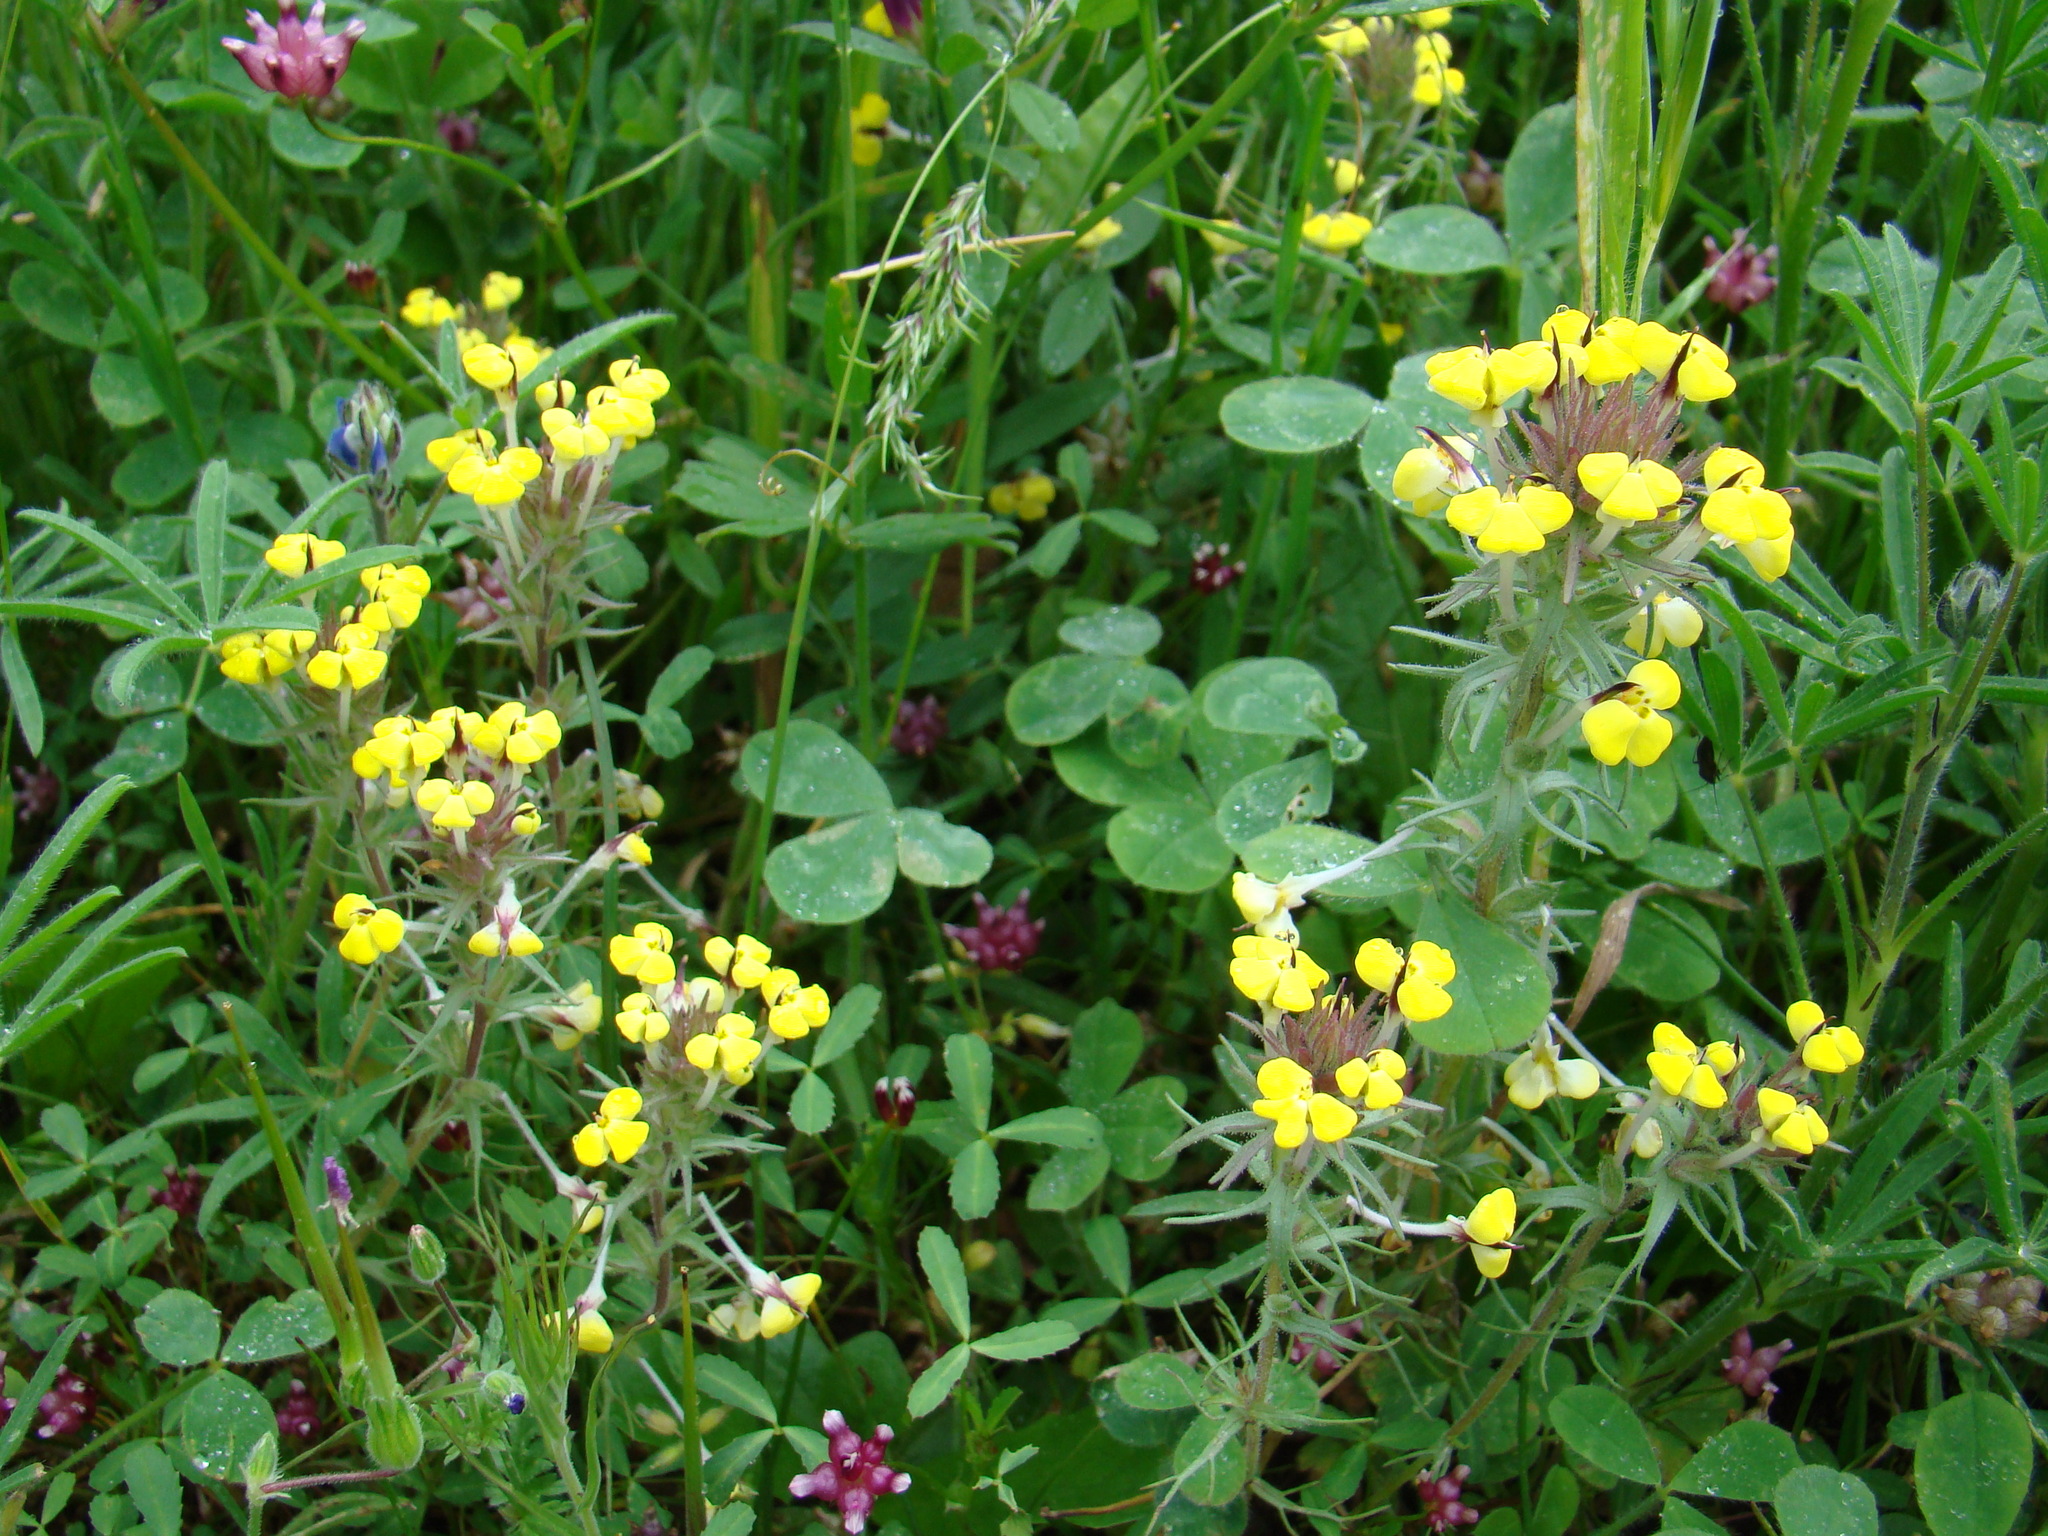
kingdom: Plantae
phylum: Tracheophyta
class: Magnoliopsida
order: Lamiales
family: Orobanchaceae
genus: Triphysaria
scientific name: Triphysaria eriantha
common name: Johnny-tuck
